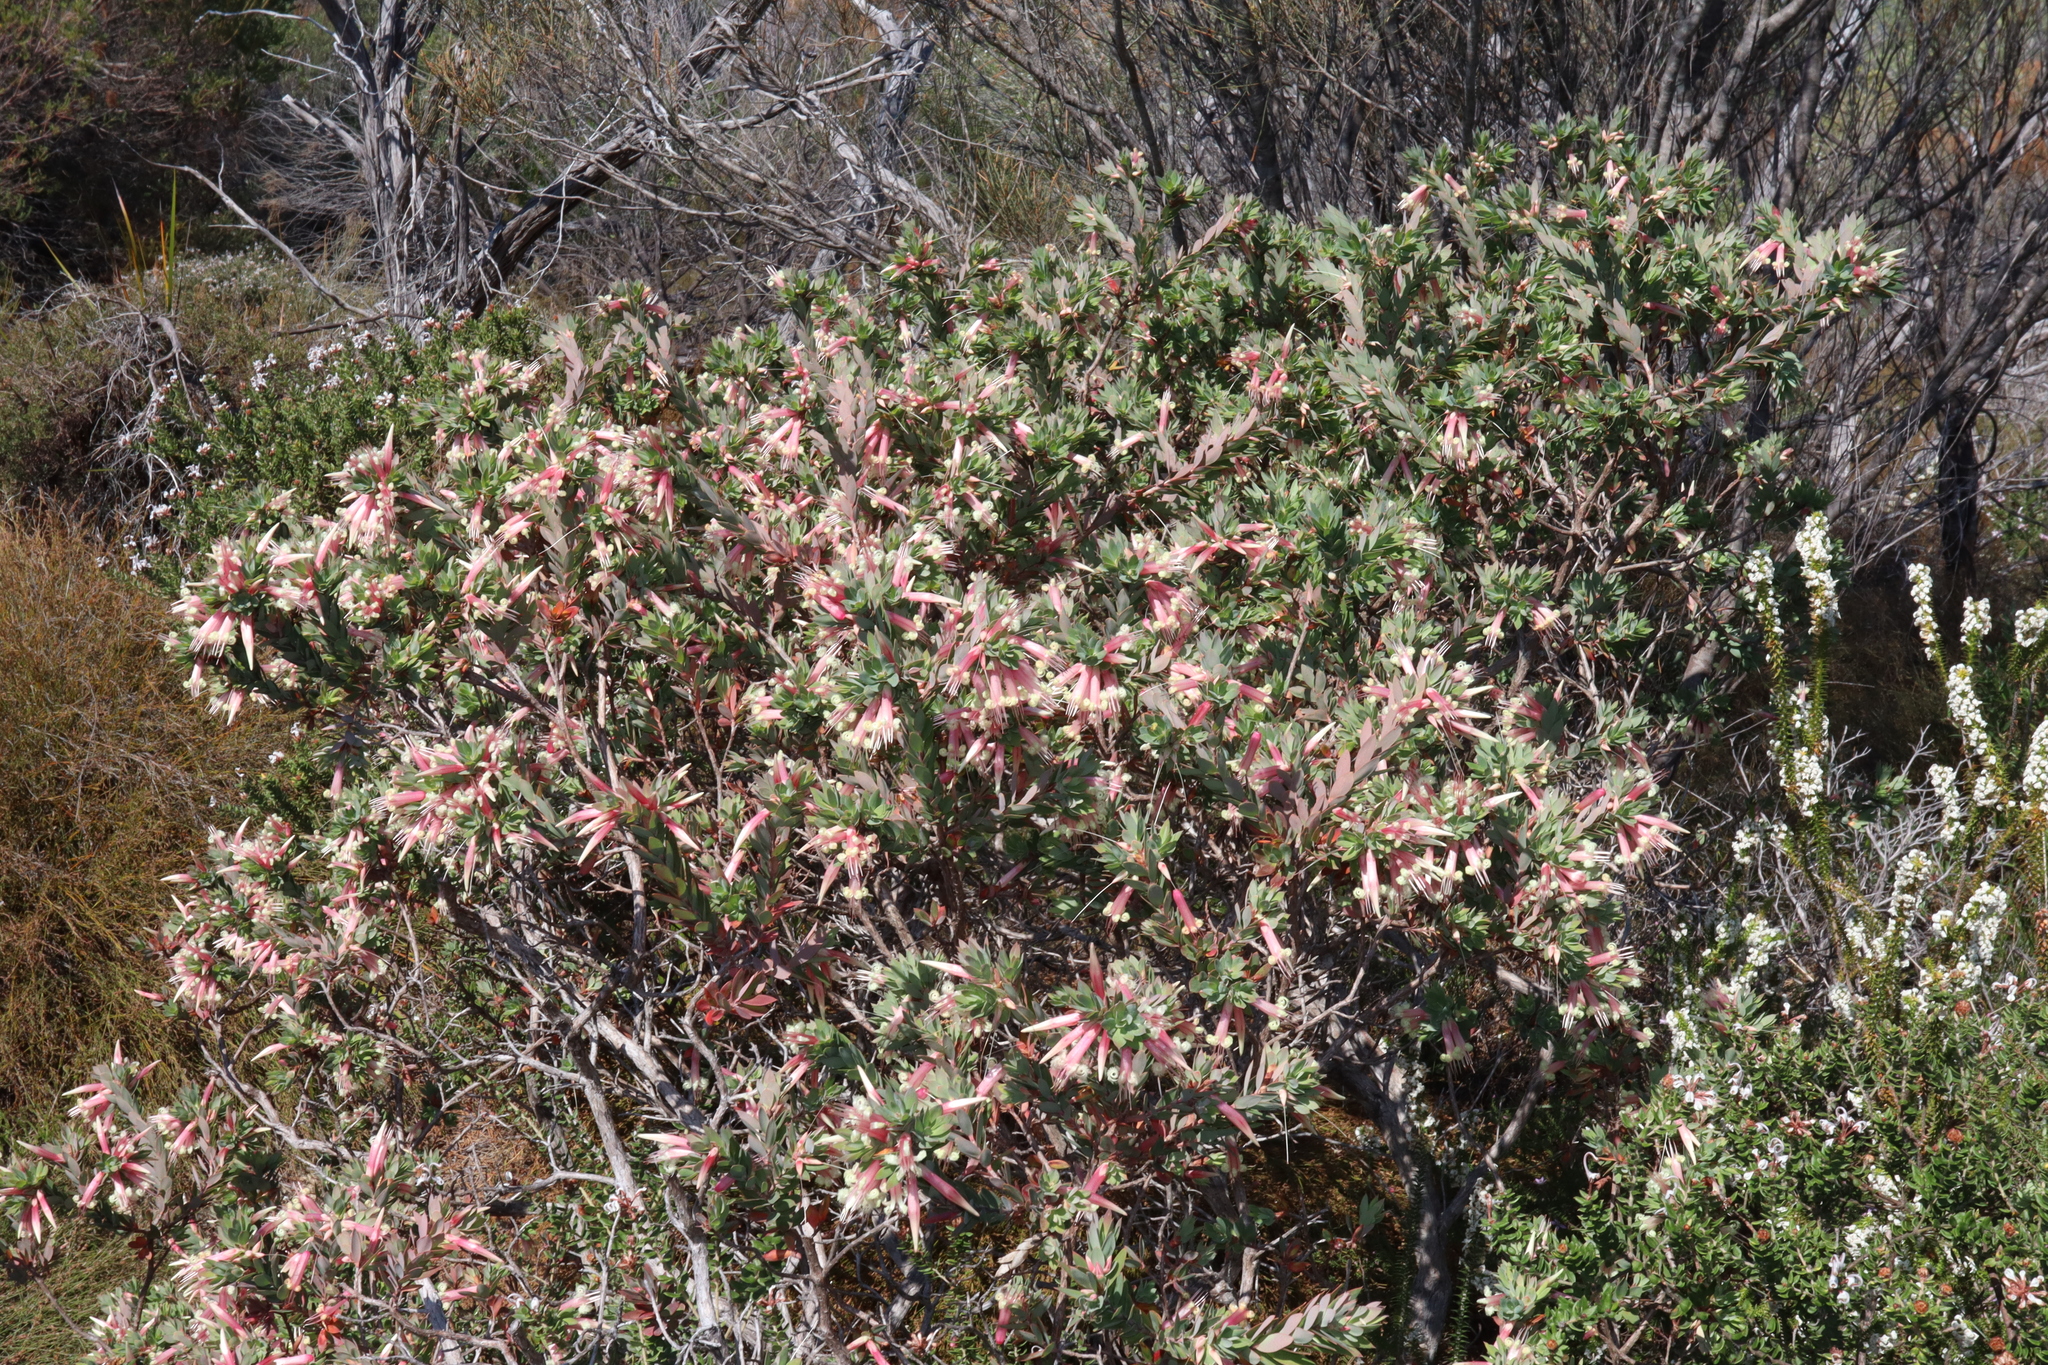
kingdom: Plantae
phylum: Tracheophyta
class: Magnoliopsida
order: Ericales
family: Ericaceae
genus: Styphelia
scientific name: Styphelia triflora
